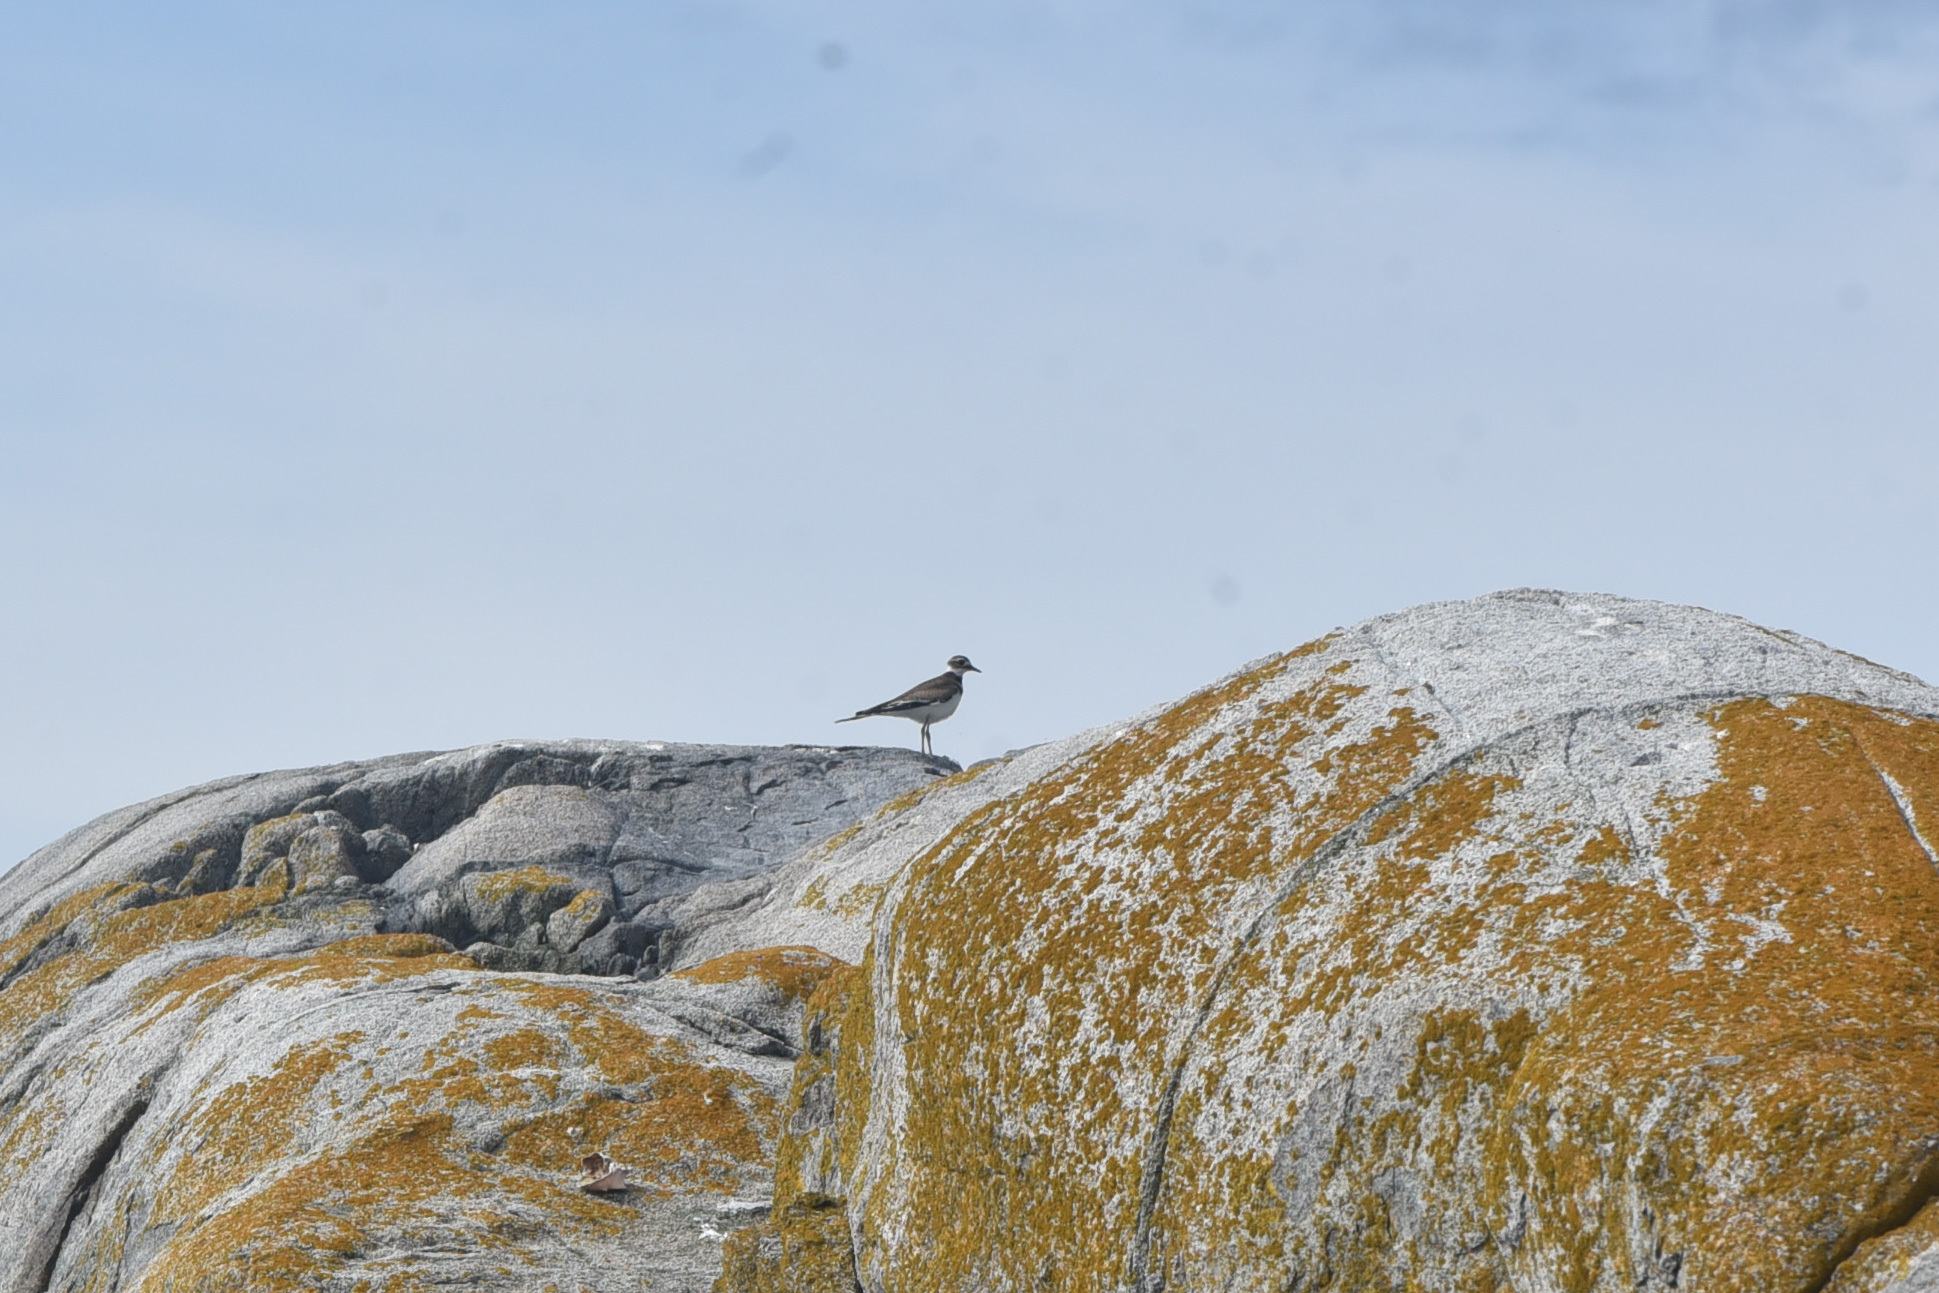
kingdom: Animalia
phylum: Chordata
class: Aves
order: Charadriiformes
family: Charadriidae
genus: Charadrius
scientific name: Charadrius vociferus
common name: Killdeer
